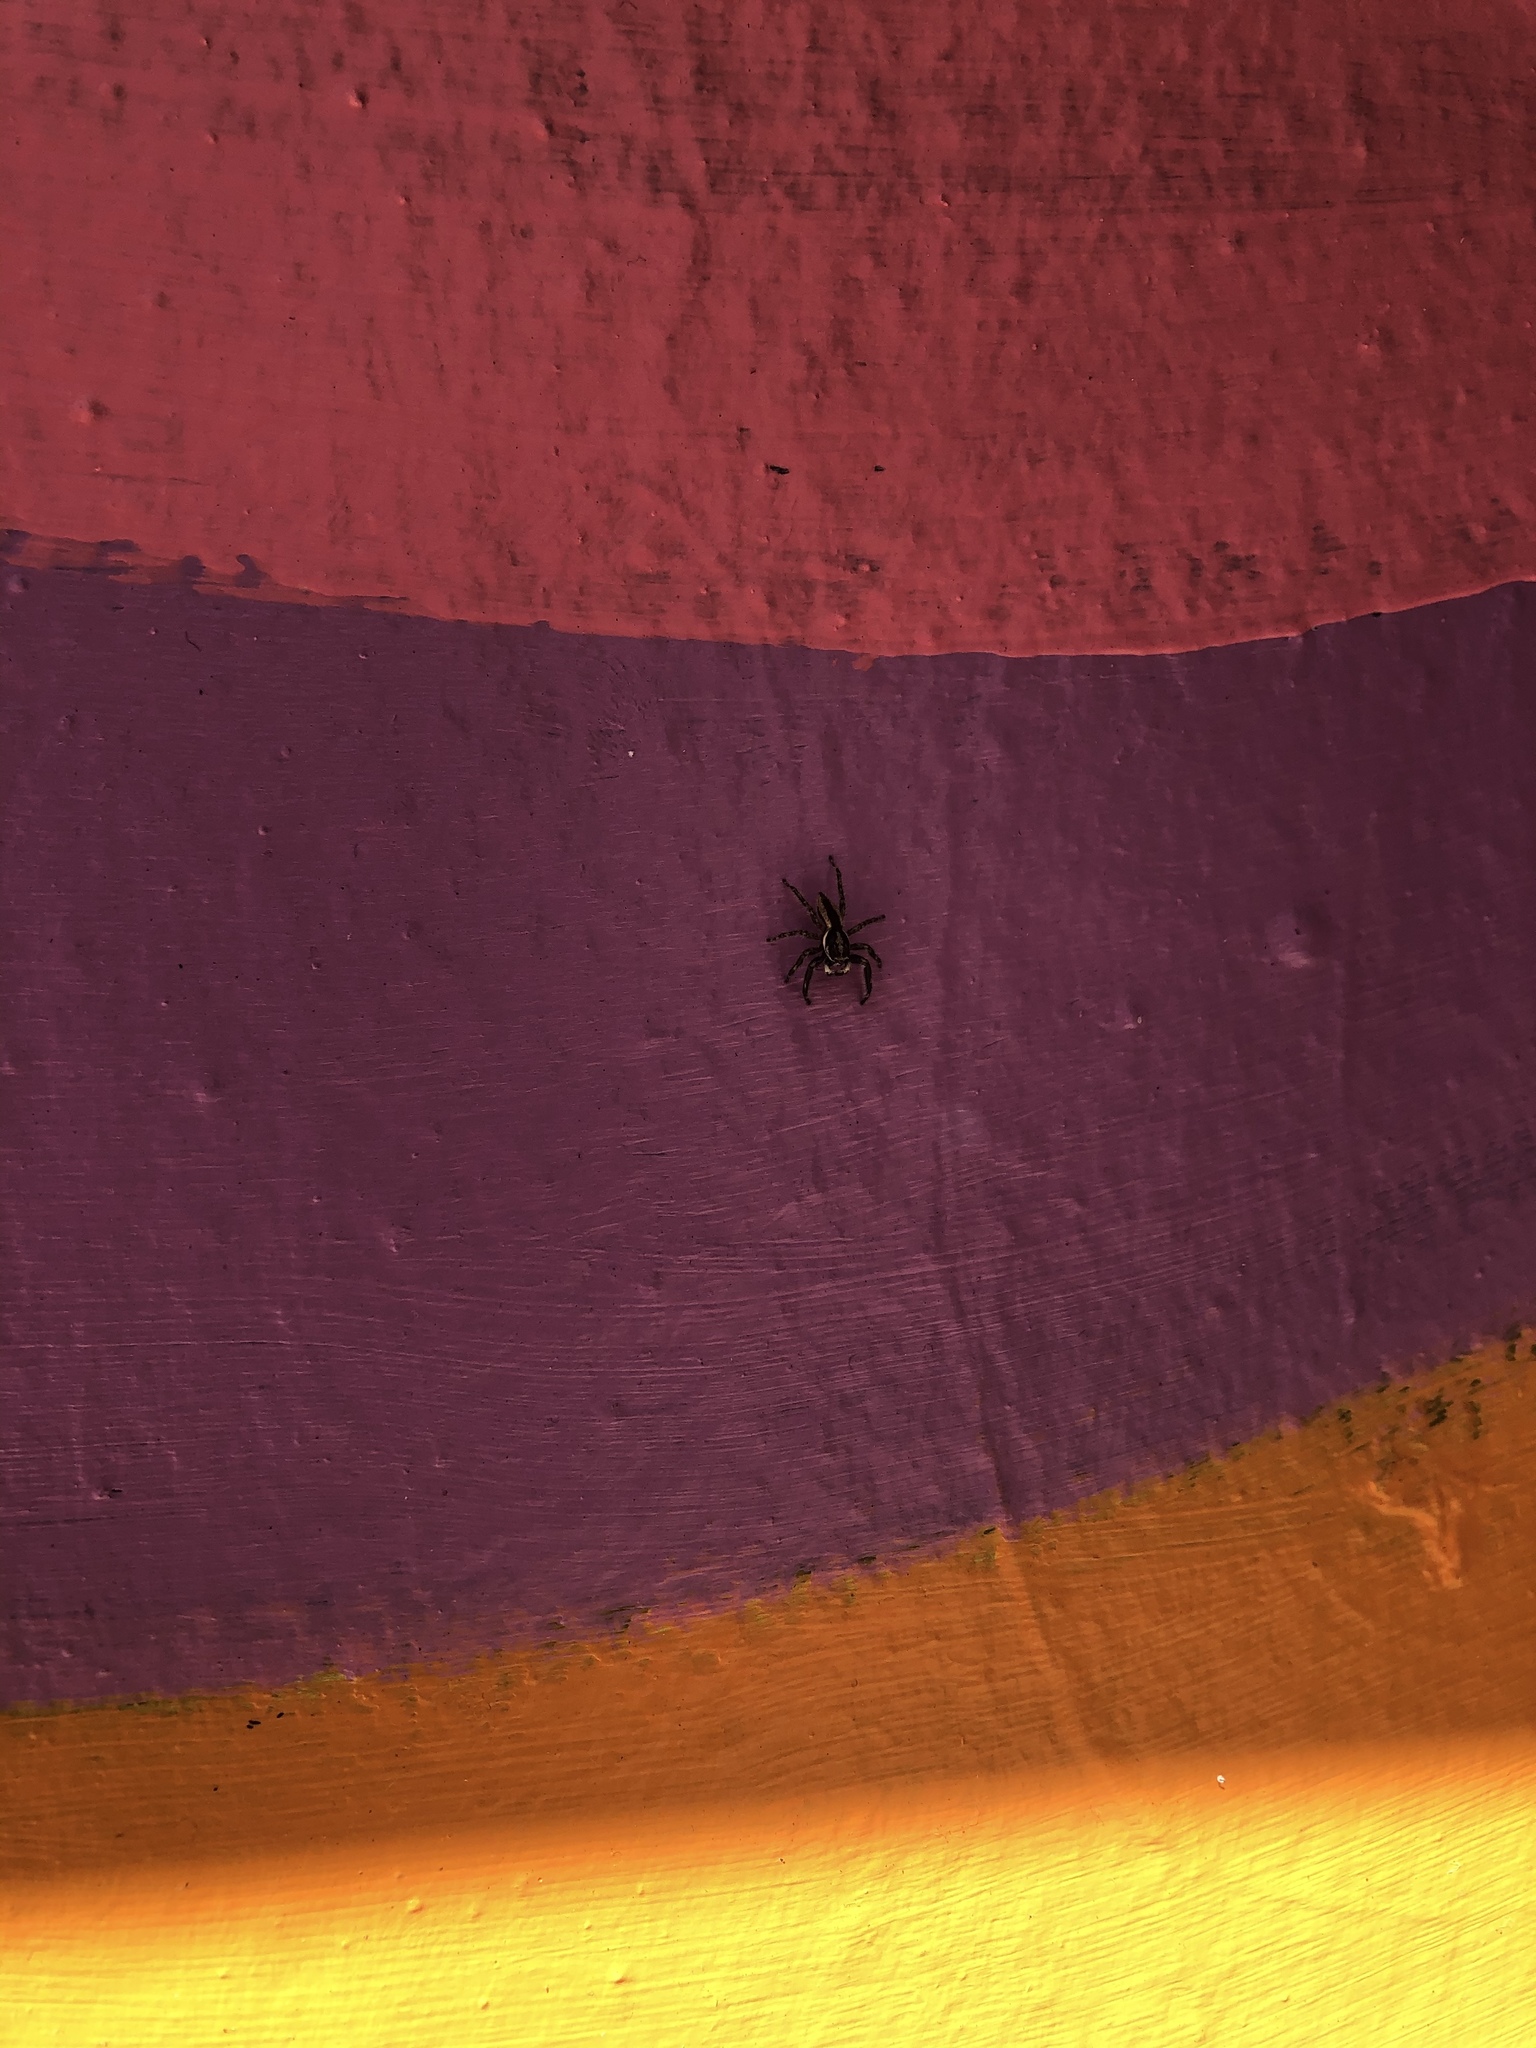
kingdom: Animalia
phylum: Arthropoda
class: Arachnida
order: Araneae
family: Salticidae
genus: Menemerus
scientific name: Menemerus bivittatus
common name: Gray wall jumper
